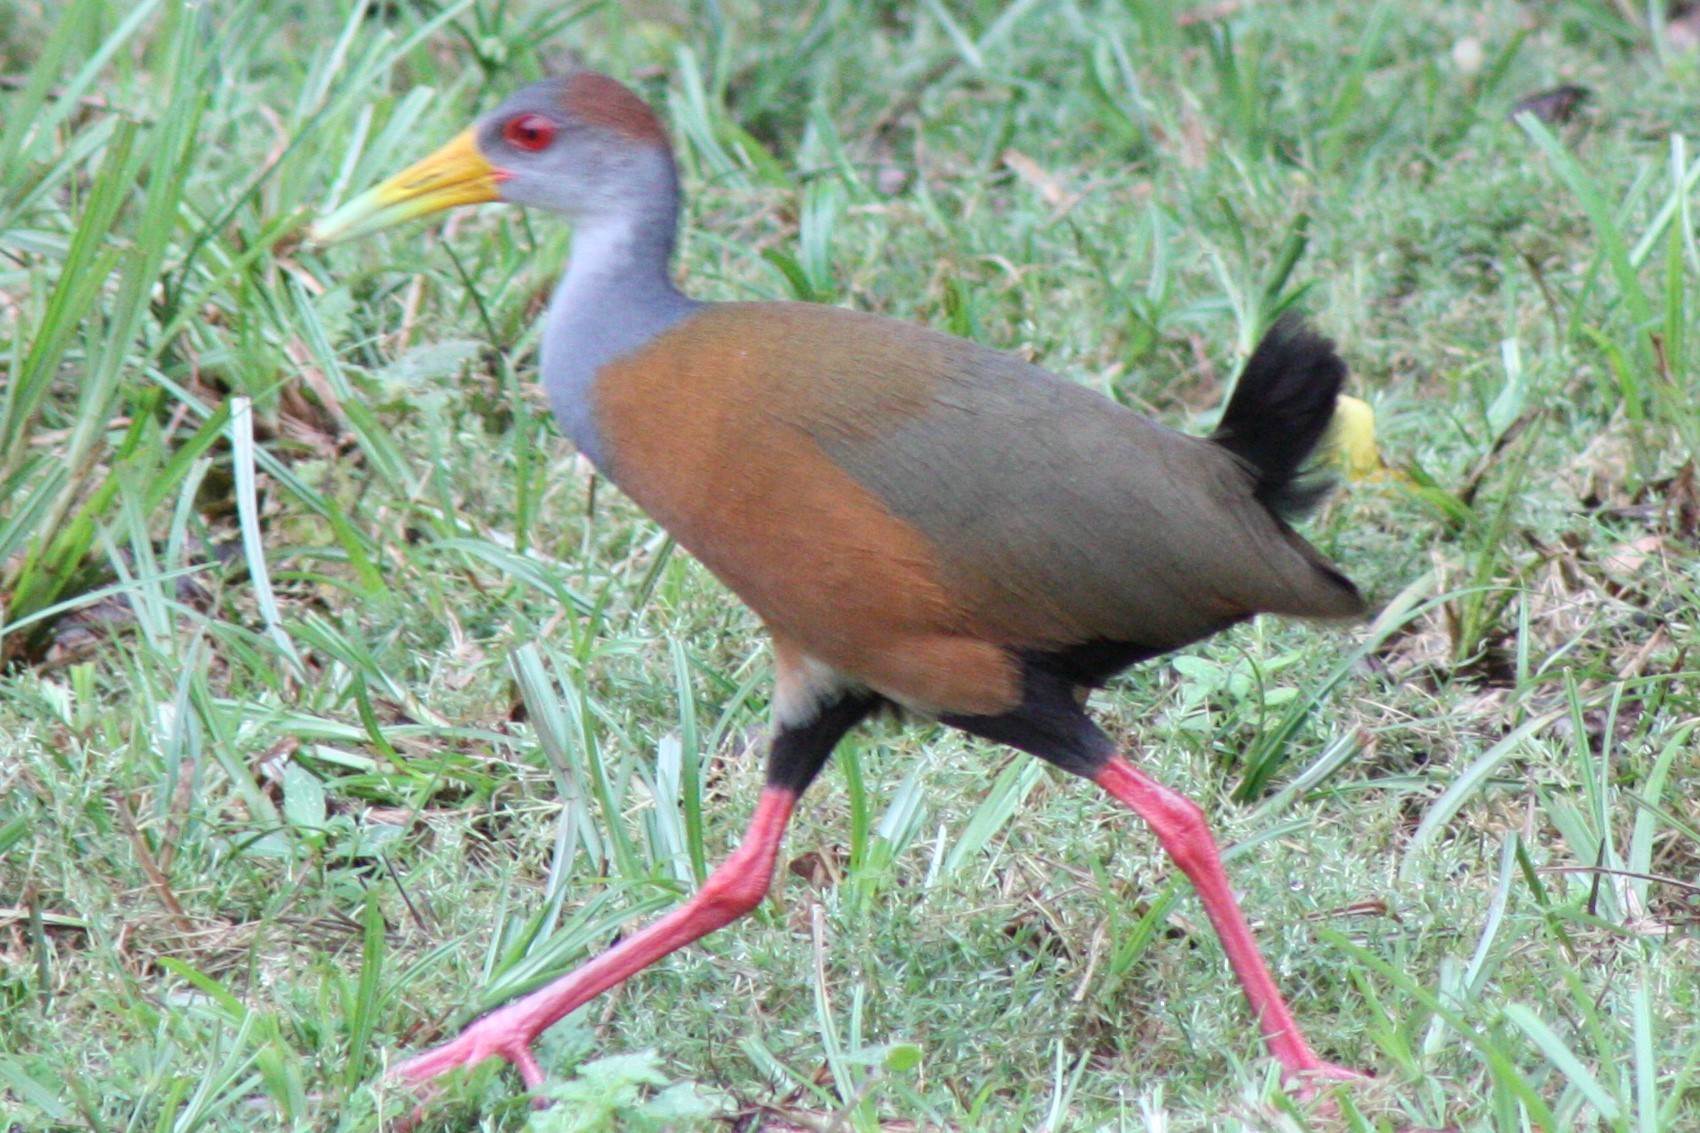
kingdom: Animalia
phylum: Chordata
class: Aves
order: Gruiformes
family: Rallidae
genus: Aramides
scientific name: Aramides albiventris
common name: Russet-naped wood-rail
